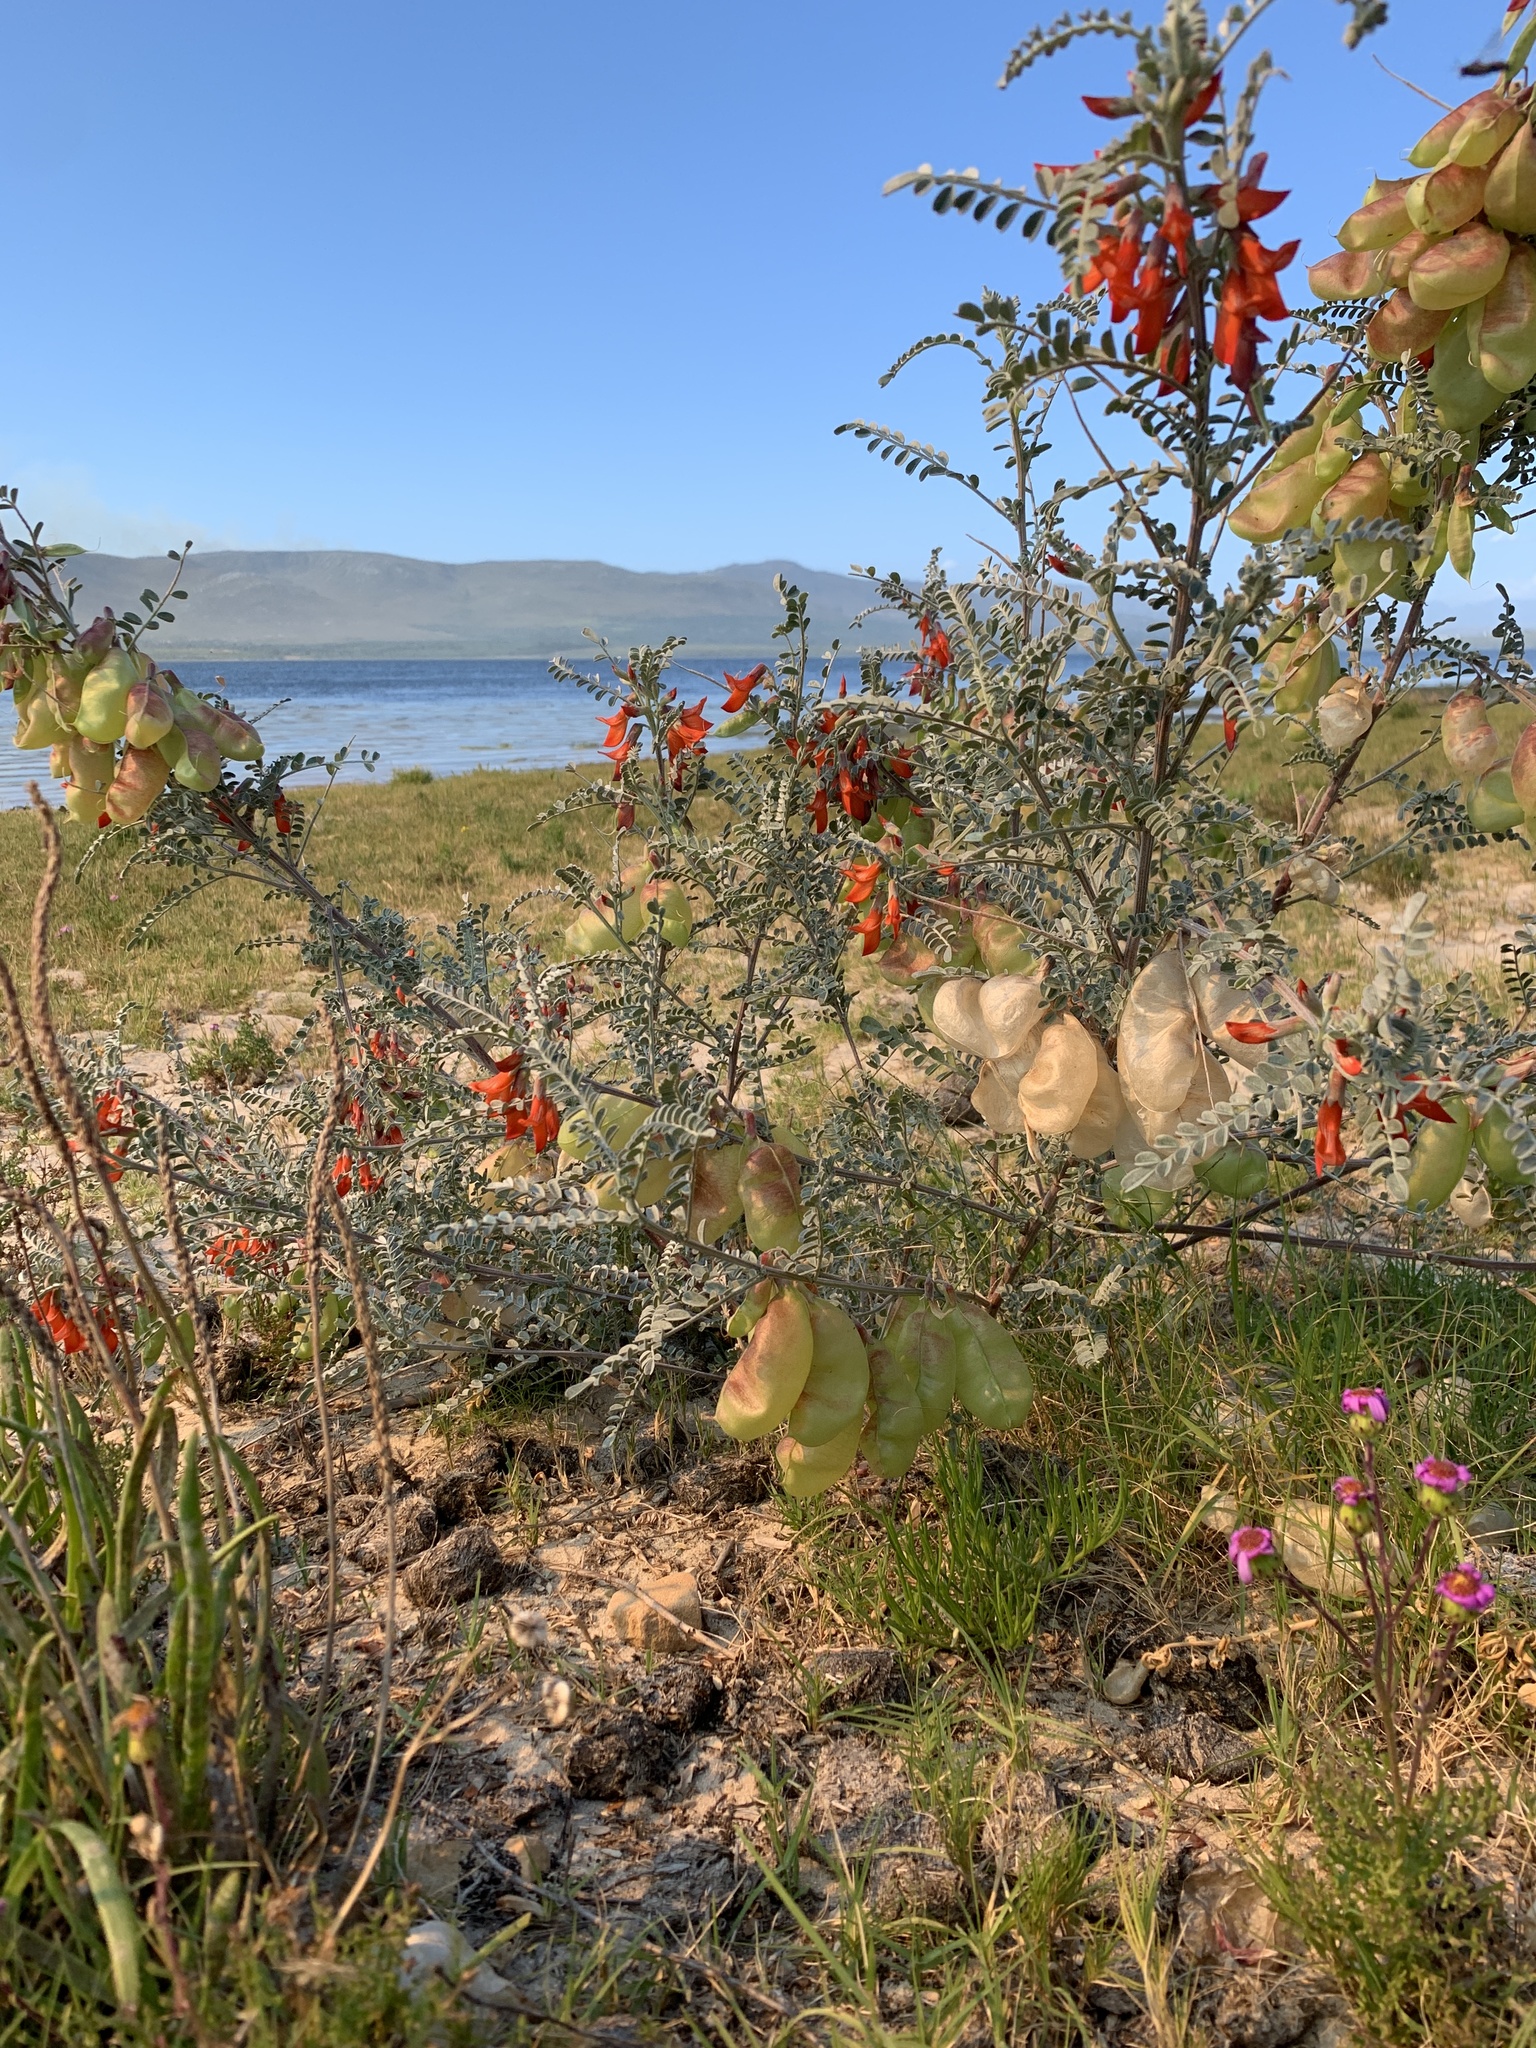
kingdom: Plantae
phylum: Tracheophyta
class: Magnoliopsida
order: Fabales
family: Fabaceae
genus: Lessertia
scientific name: Lessertia frutescens
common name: Balloon-pea
